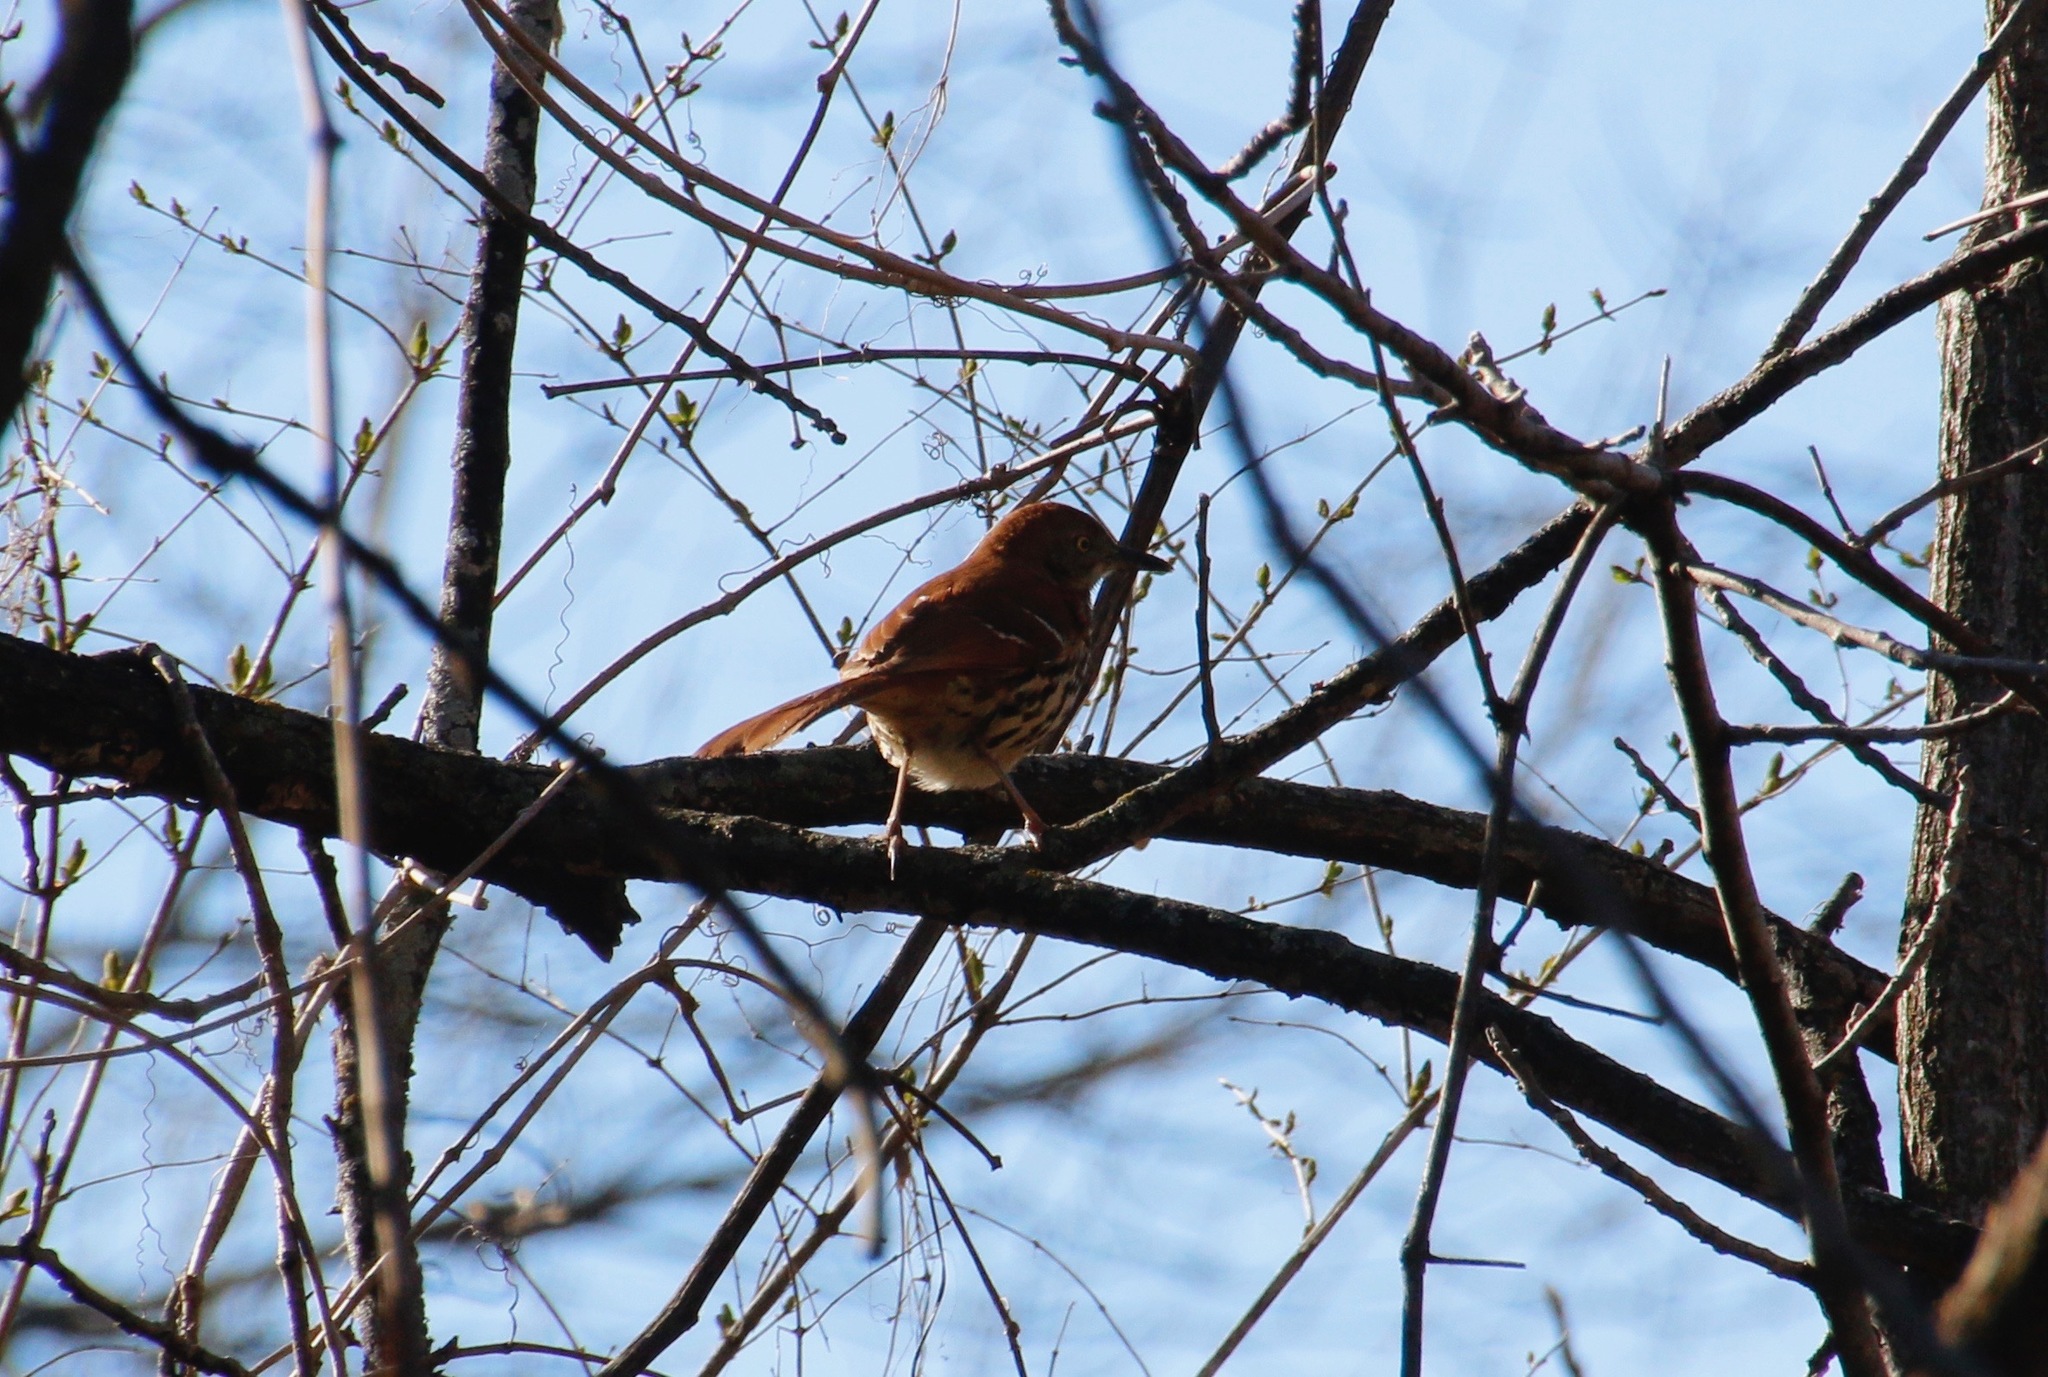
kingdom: Animalia
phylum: Chordata
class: Aves
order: Passeriformes
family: Mimidae
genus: Toxostoma
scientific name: Toxostoma rufum
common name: Brown thrasher
